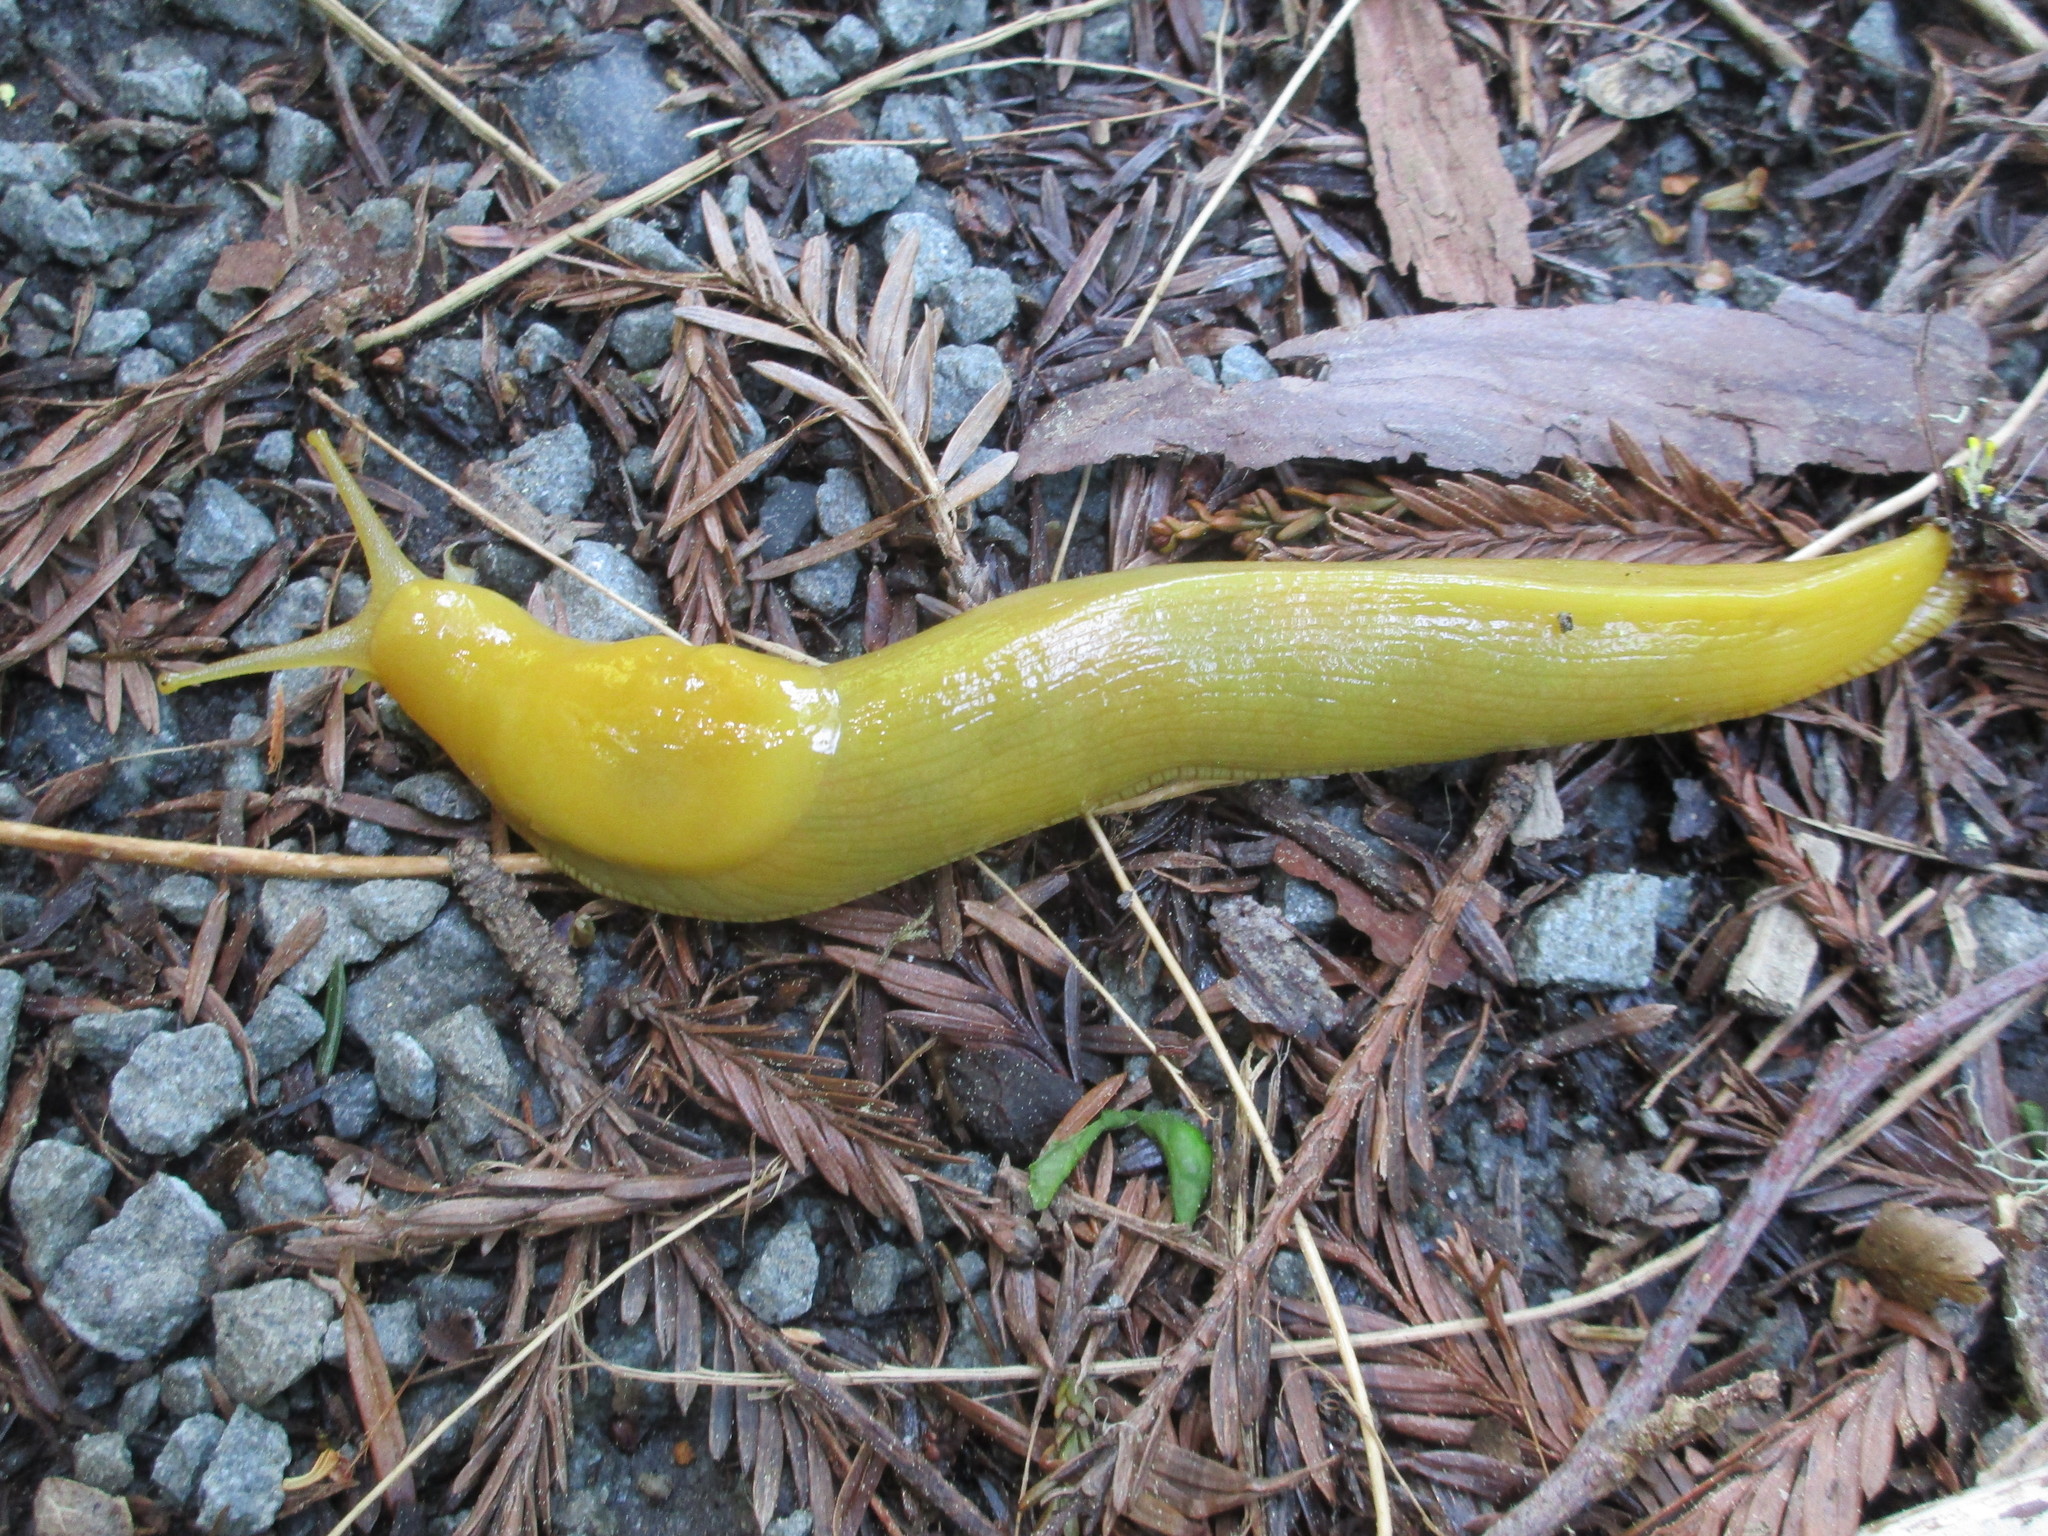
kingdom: Animalia
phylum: Mollusca
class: Gastropoda
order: Stylommatophora
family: Ariolimacidae
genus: Ariolimax
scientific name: Ariolimax columbianus
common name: Pacific banana slug
